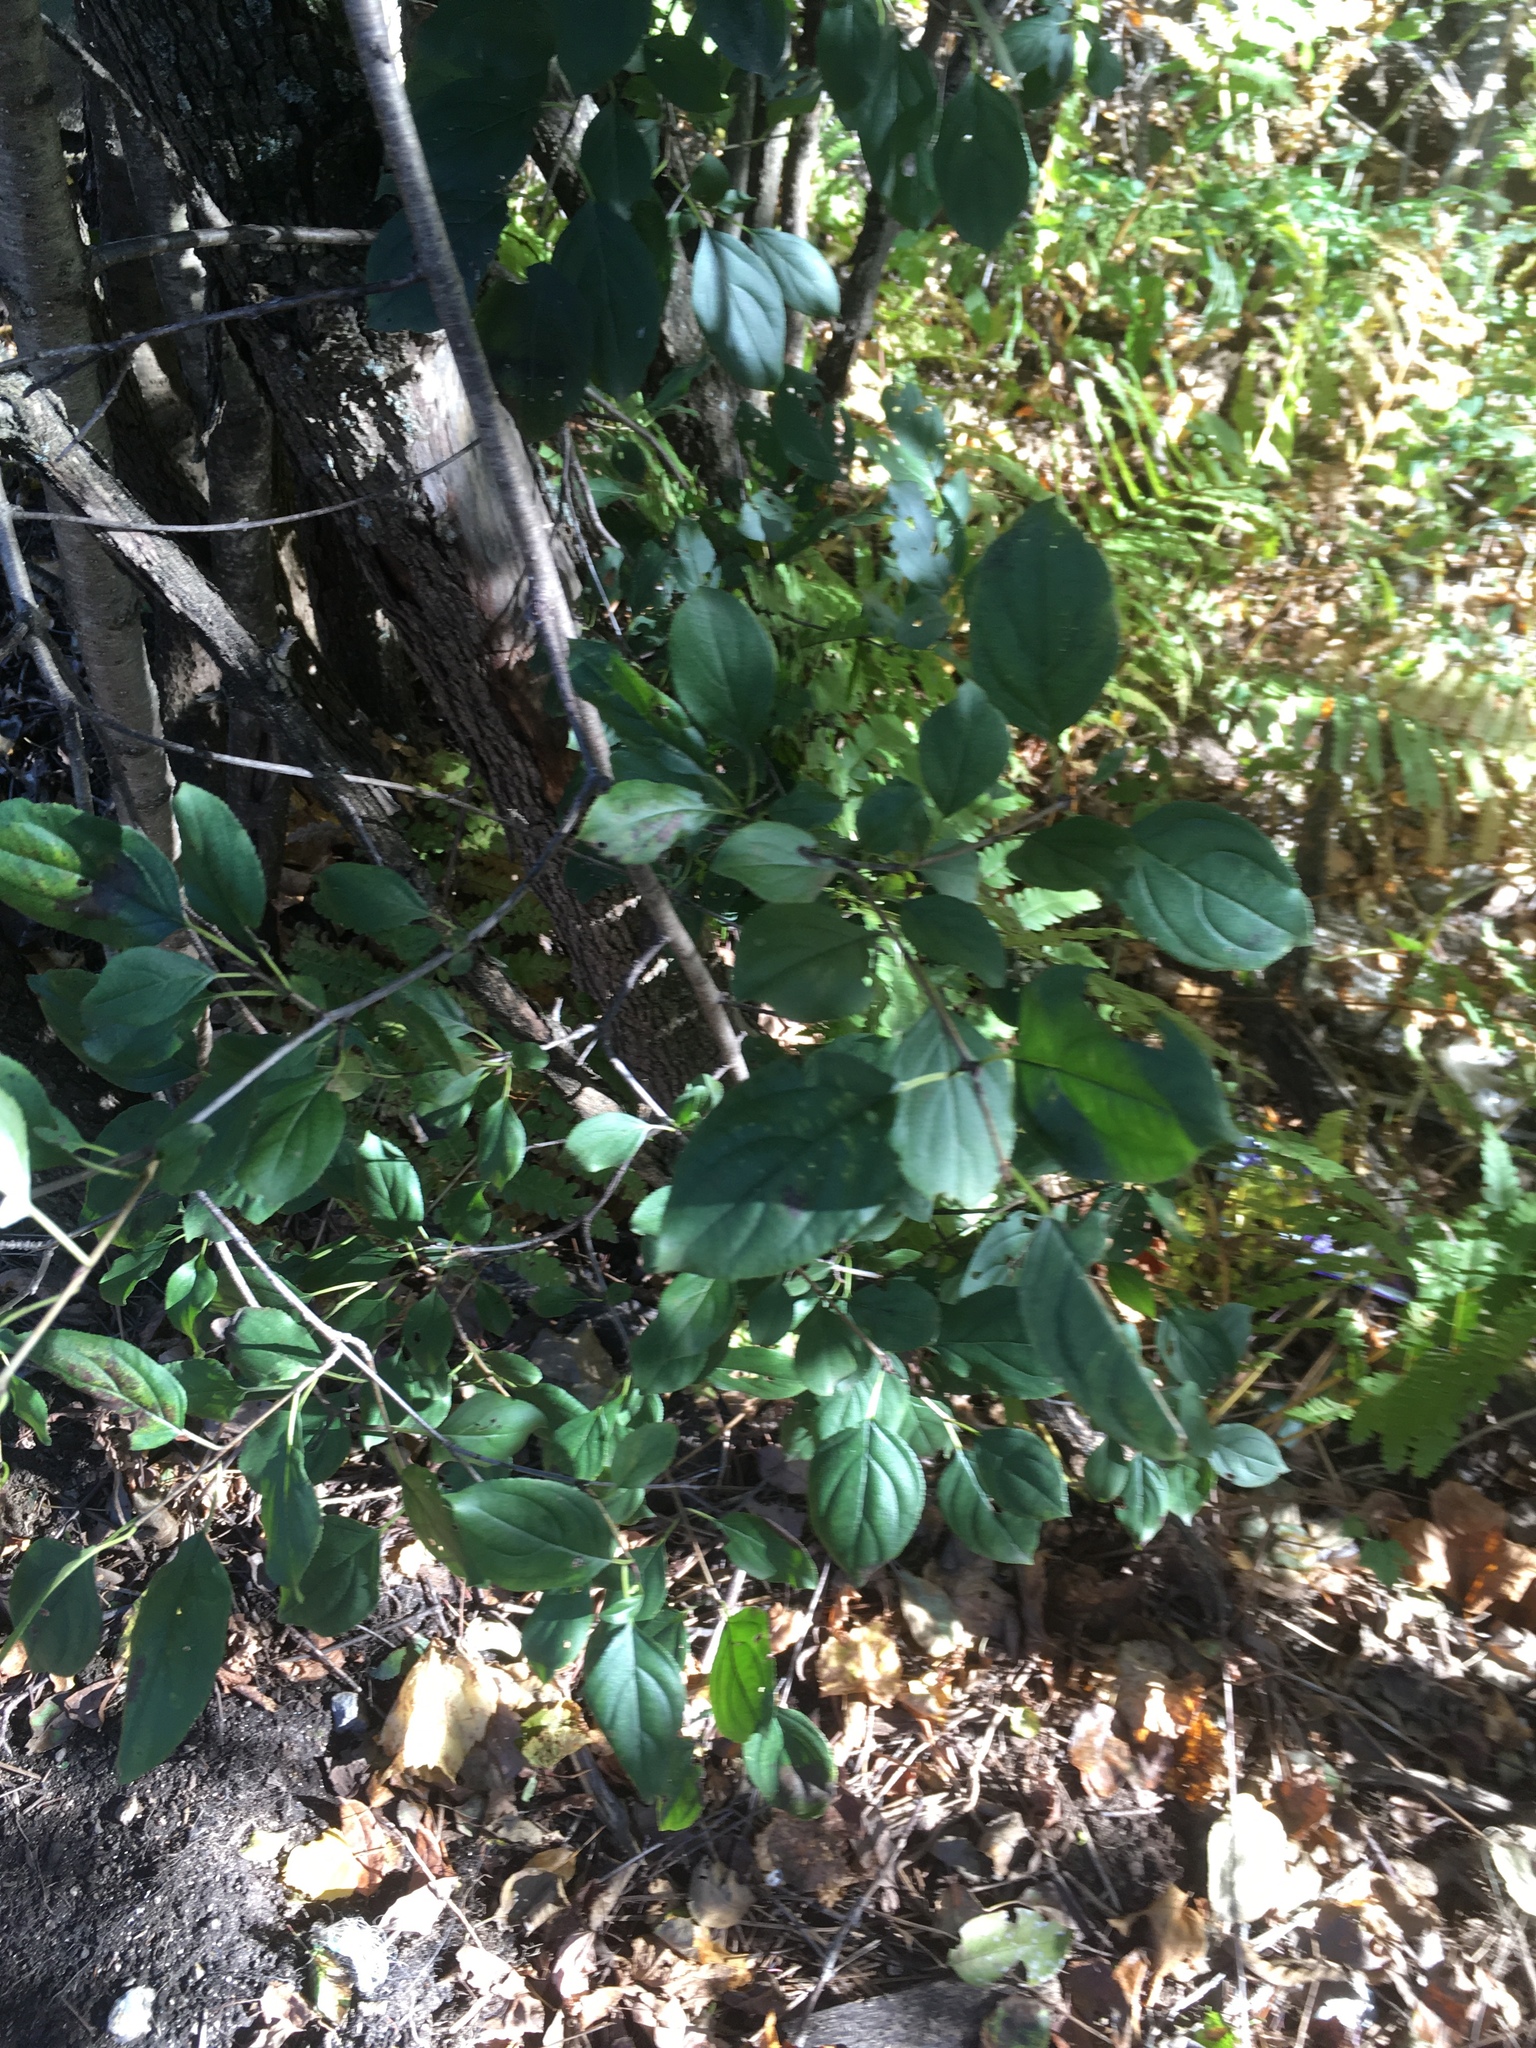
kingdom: Plantae
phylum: Tracheophyta
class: Magnoliopsida
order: Rosales
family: Rhamnaceae
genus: Rhamnus
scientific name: Rhamnus cathartica
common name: Common buckthorn
